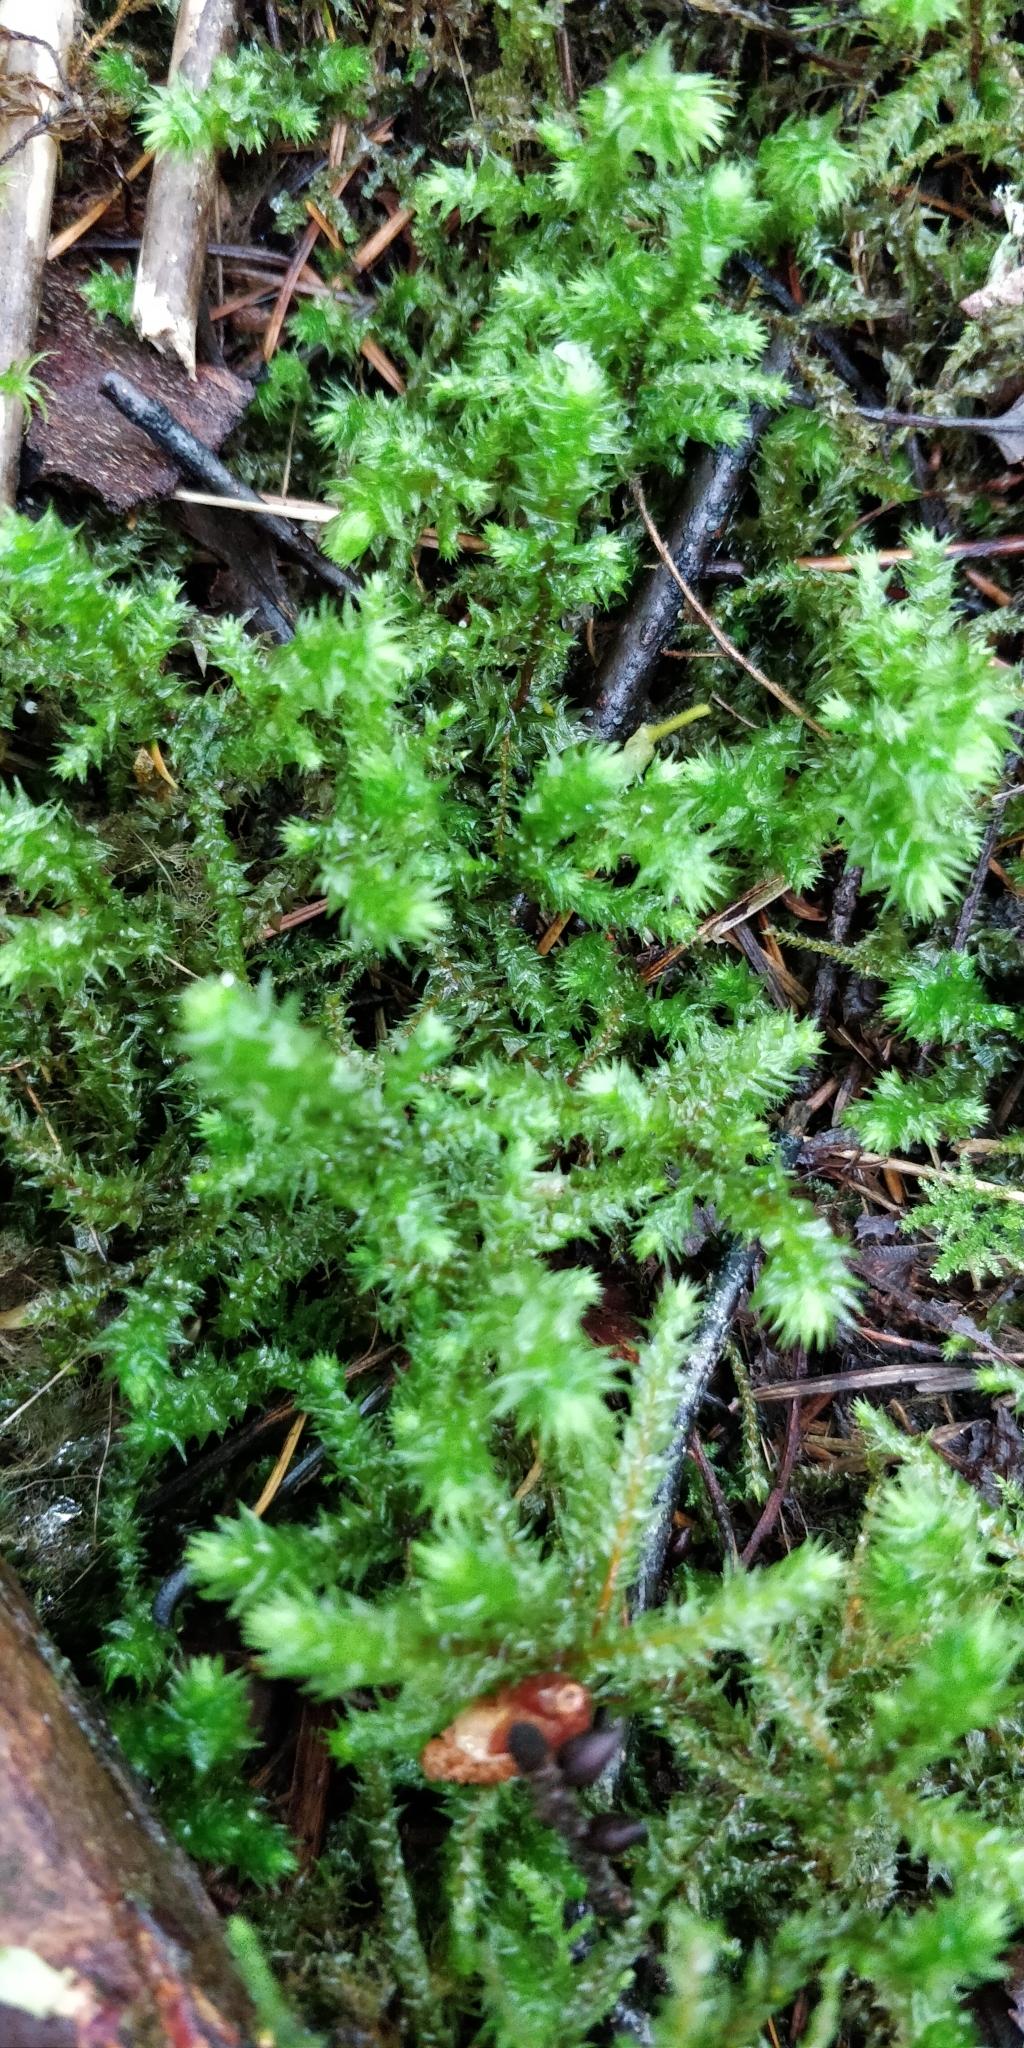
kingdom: Plantae
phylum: Bryophyta
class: Bryopsida
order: Hypnales
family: Hylocomiaceae
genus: Hylocomiadelphus
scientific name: Hylocomiadelphus triquetrus
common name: Rough goose neck moss
